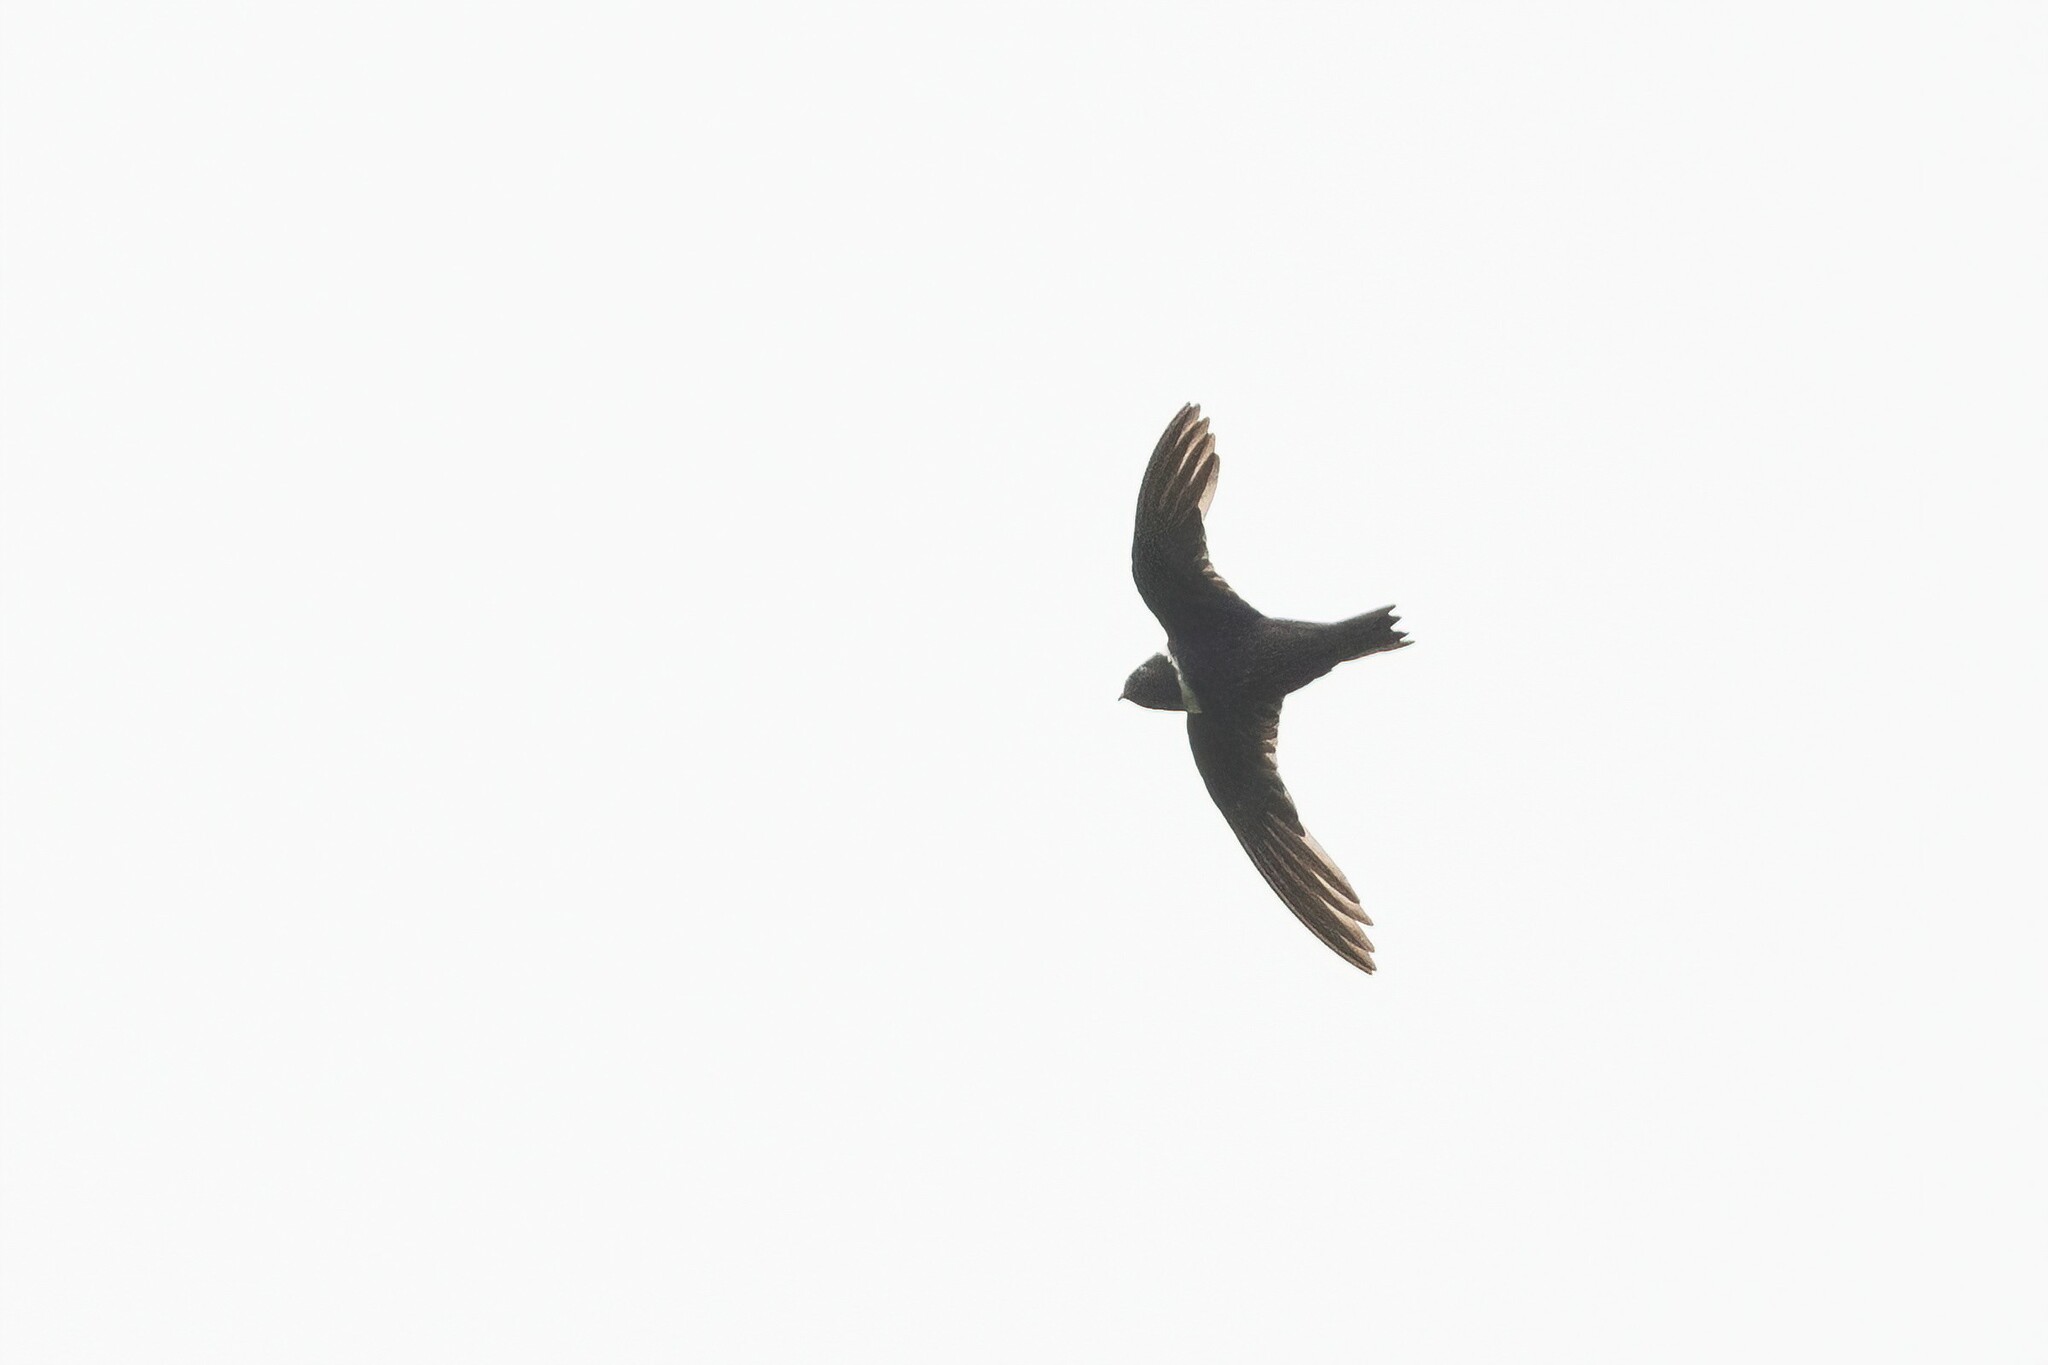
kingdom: Animalia
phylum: Chordata
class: Aves
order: Apodiformes
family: Apodidae
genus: Streptoprocne
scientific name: Streptoprocne zonaris
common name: White-collared swift
